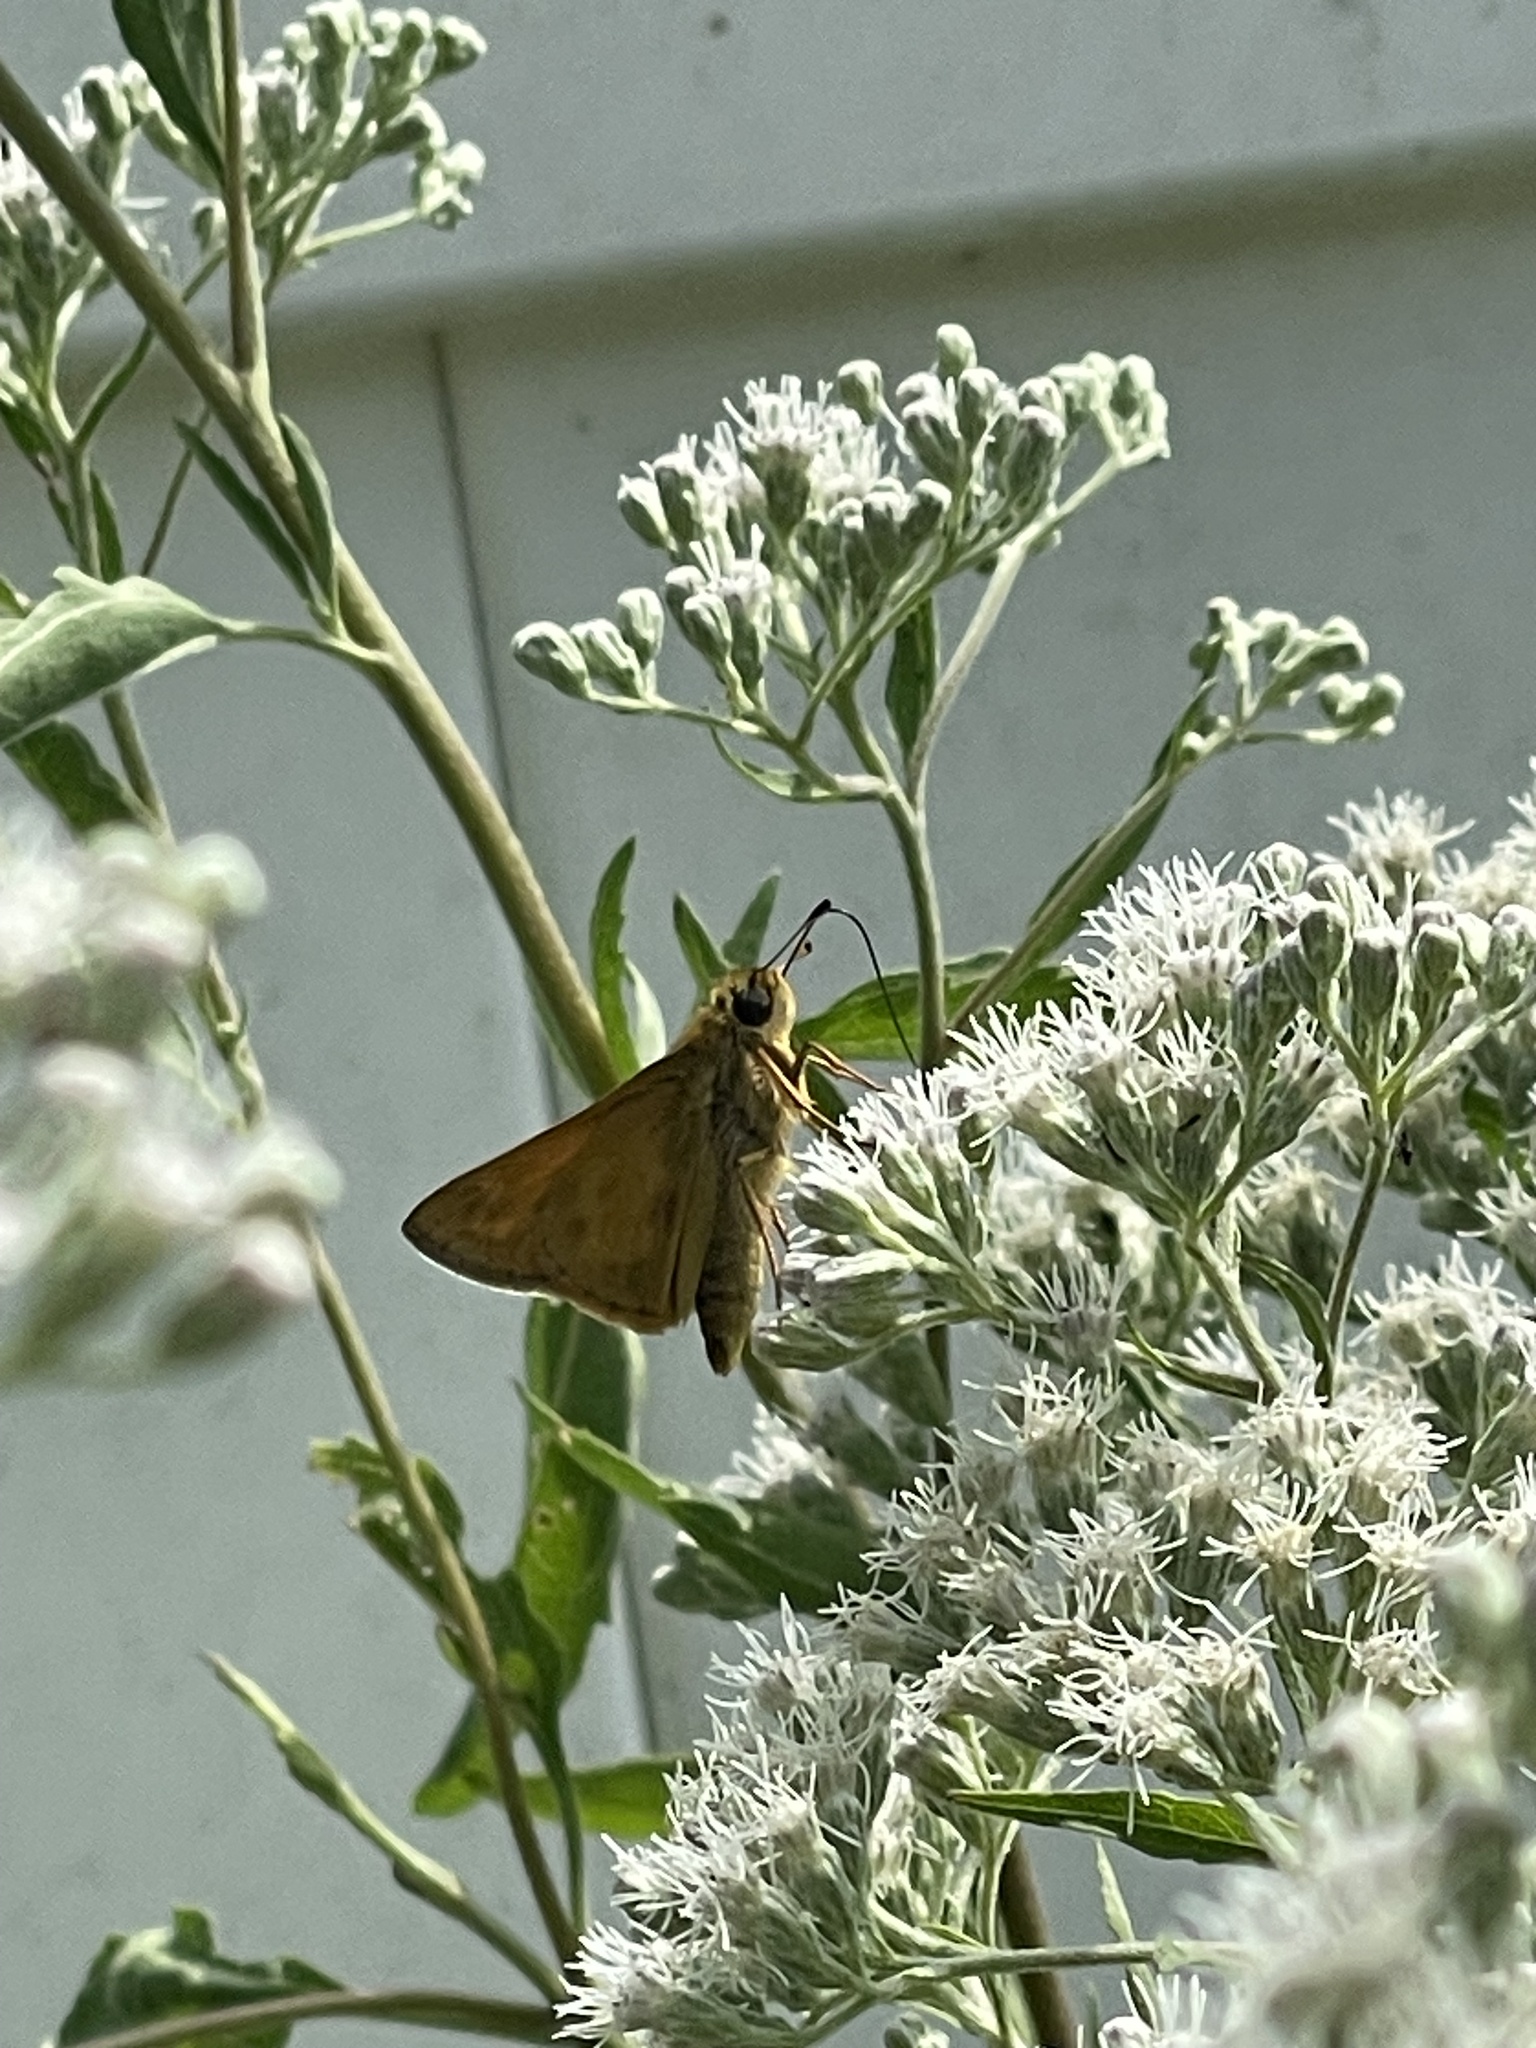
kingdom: Animalia
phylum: Arthropoda
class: Insecta
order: Lepidoptera
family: Hesperiidae
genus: Atalopedes
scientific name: Atalopedes
